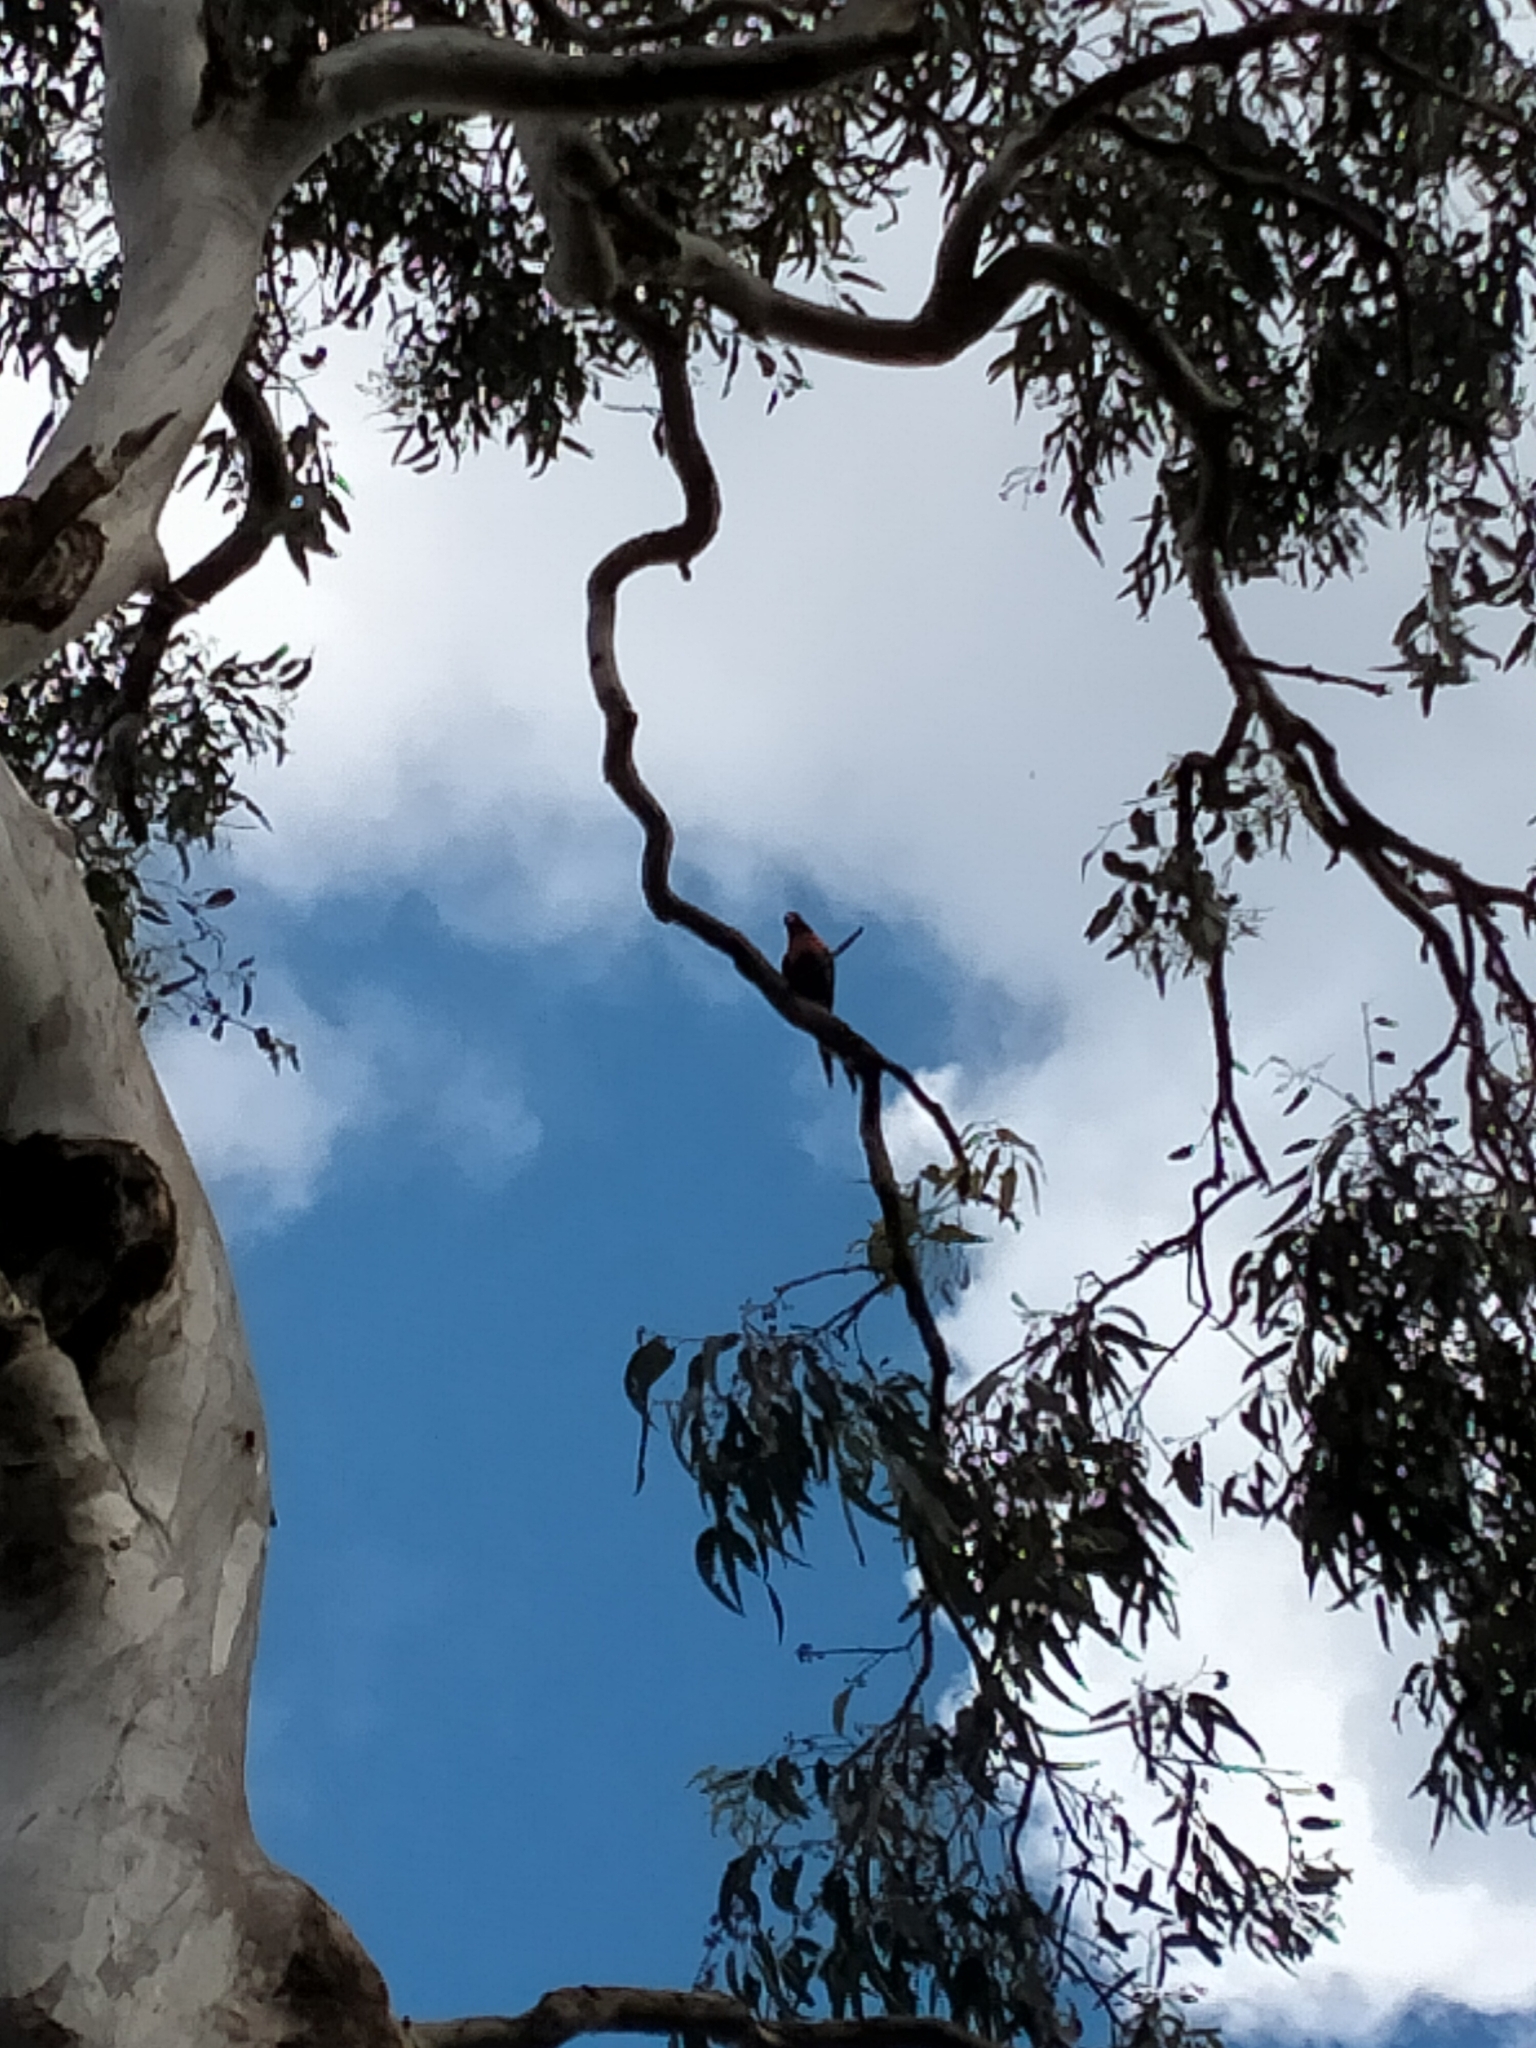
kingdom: Animalia
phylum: Chordata
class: Aves
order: Psittaciformes
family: Psittacidae
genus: Trichoglossus
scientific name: Trichoglossus haematodus
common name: Coconut lorikeet
